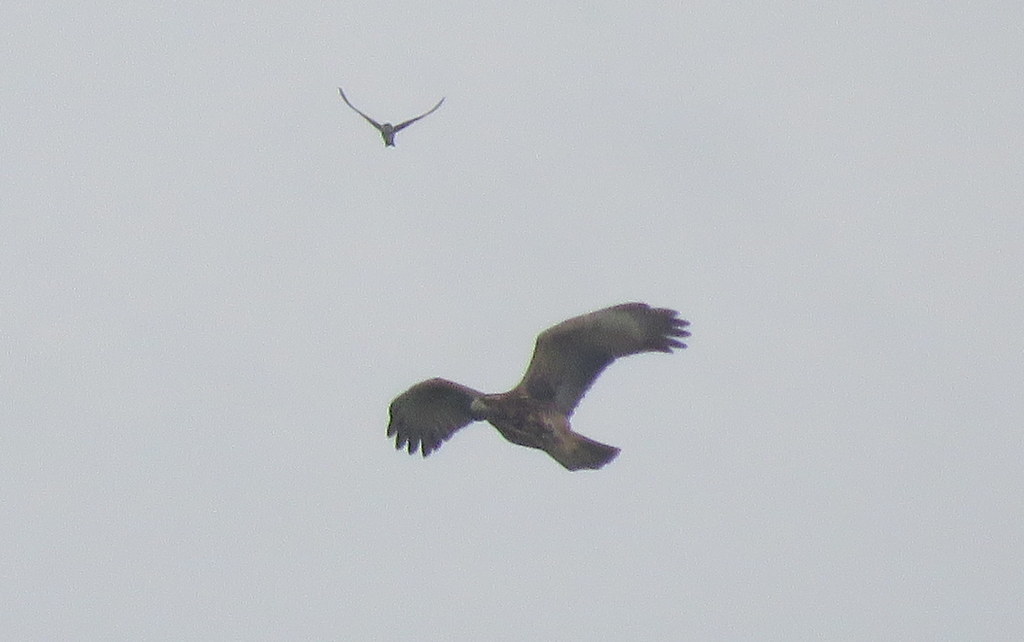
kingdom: Animalia
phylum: Chordata
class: Aves
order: Accipitriformes
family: Accipitridae
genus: Parabuteo
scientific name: Parabuteo unicinctus
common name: Harris's hawk
